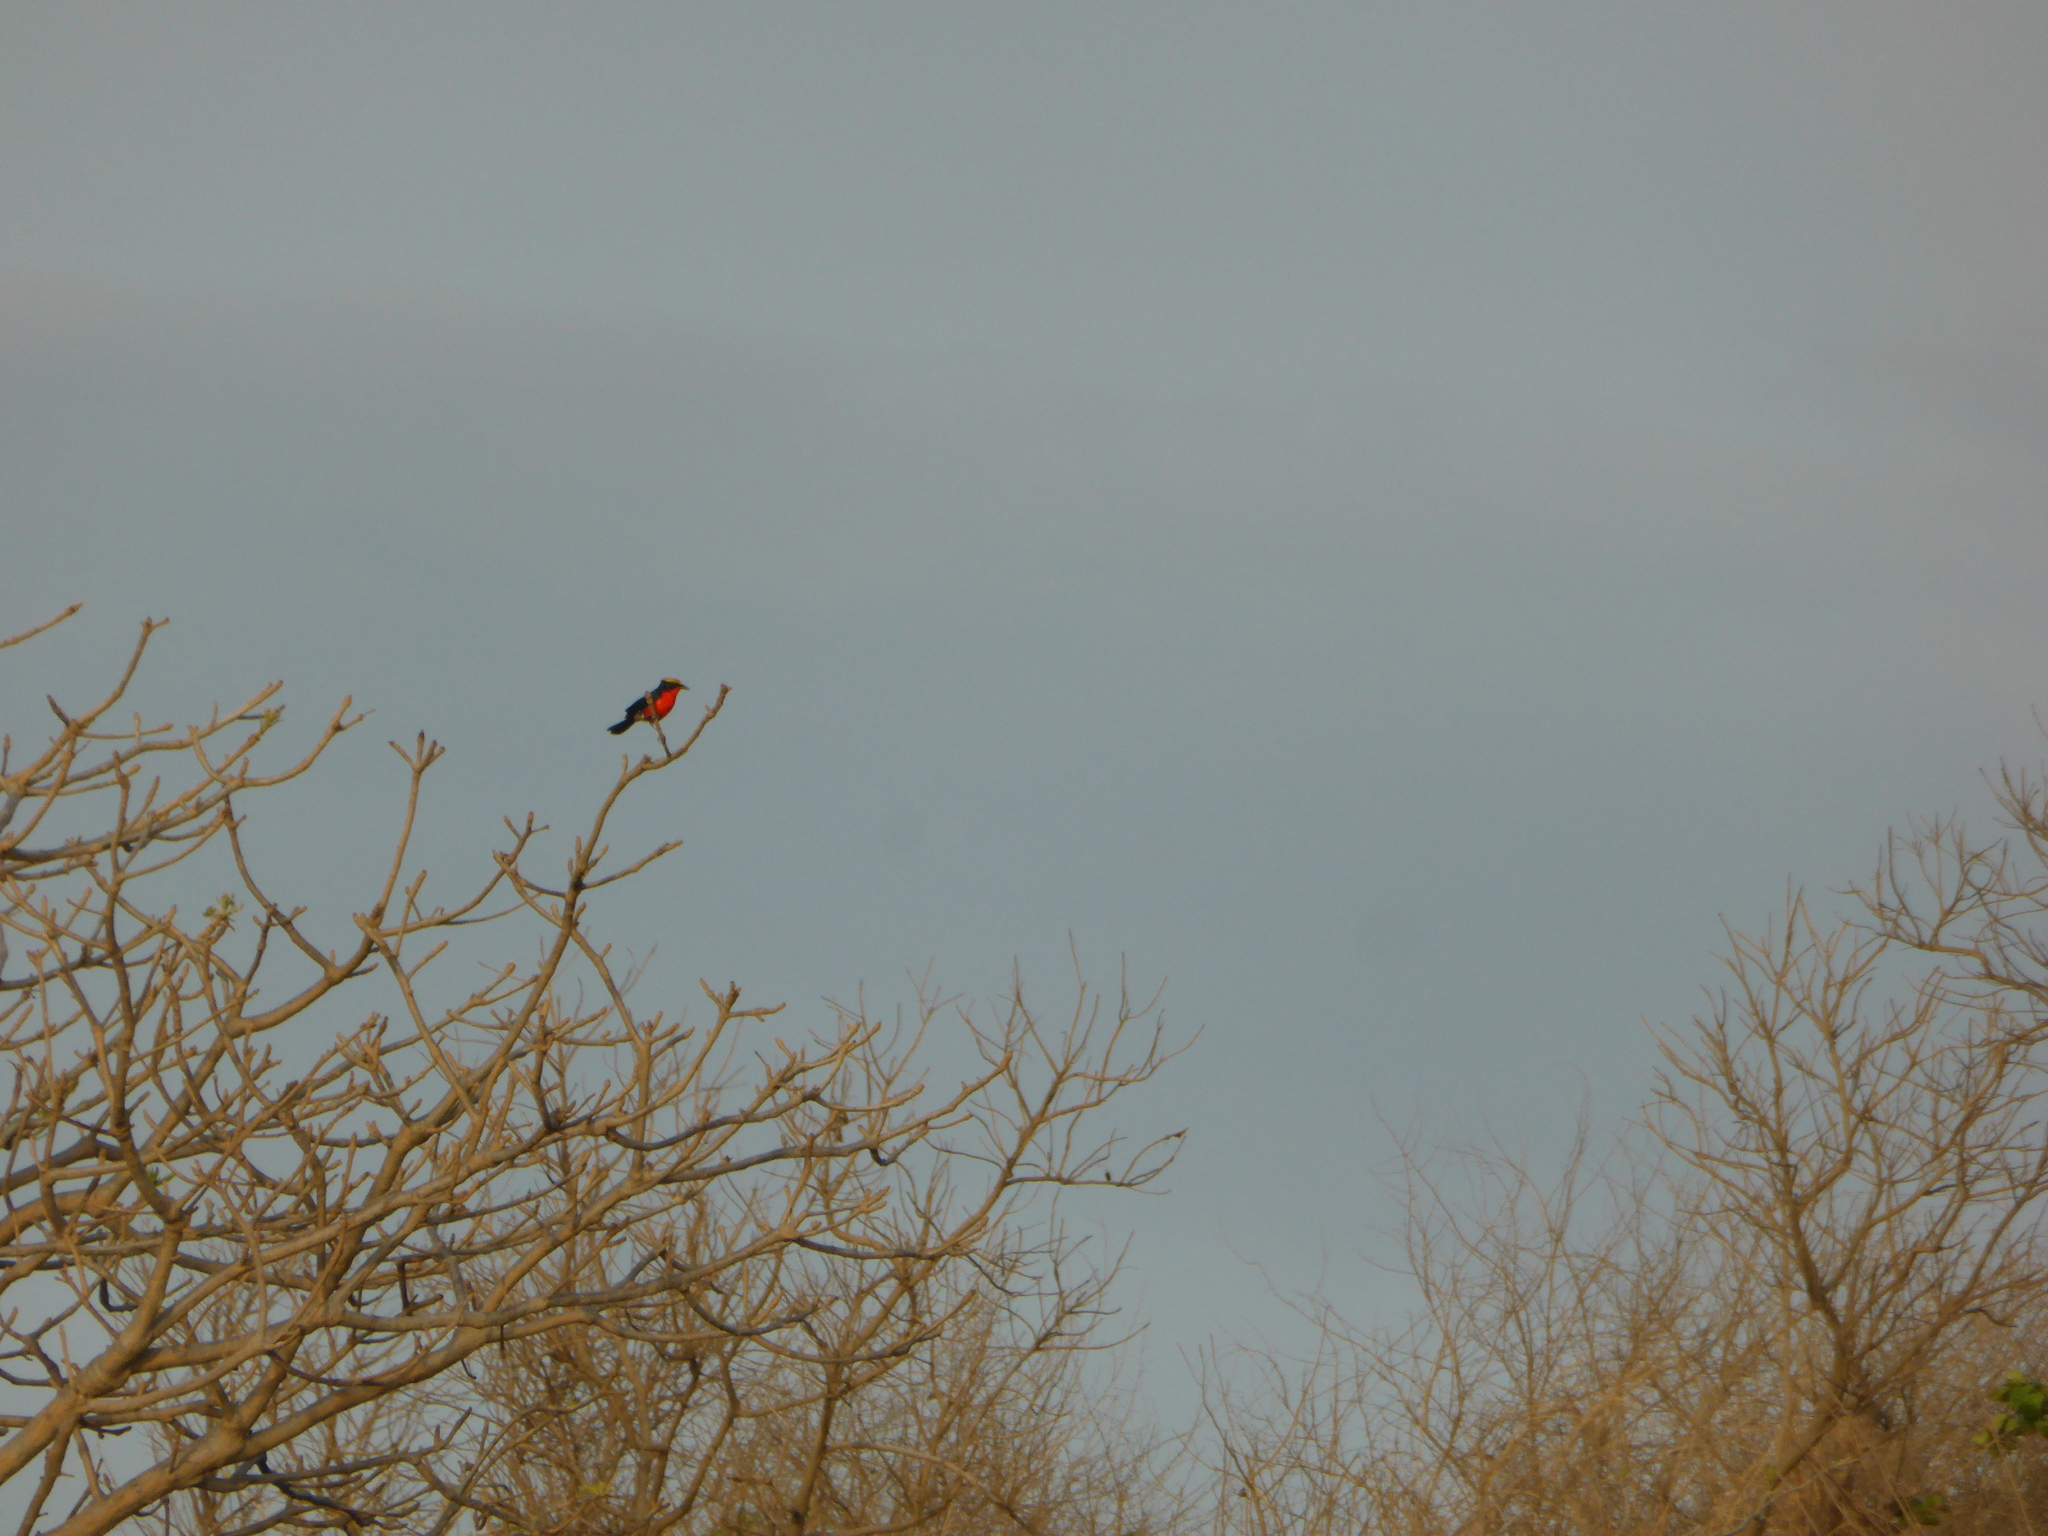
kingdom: Animalia
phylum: Chordata
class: Aves
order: Passeriformes
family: Malaconotidae
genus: Laniarius
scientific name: Laniarius barbarus
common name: Yellow-crowned gonolek
